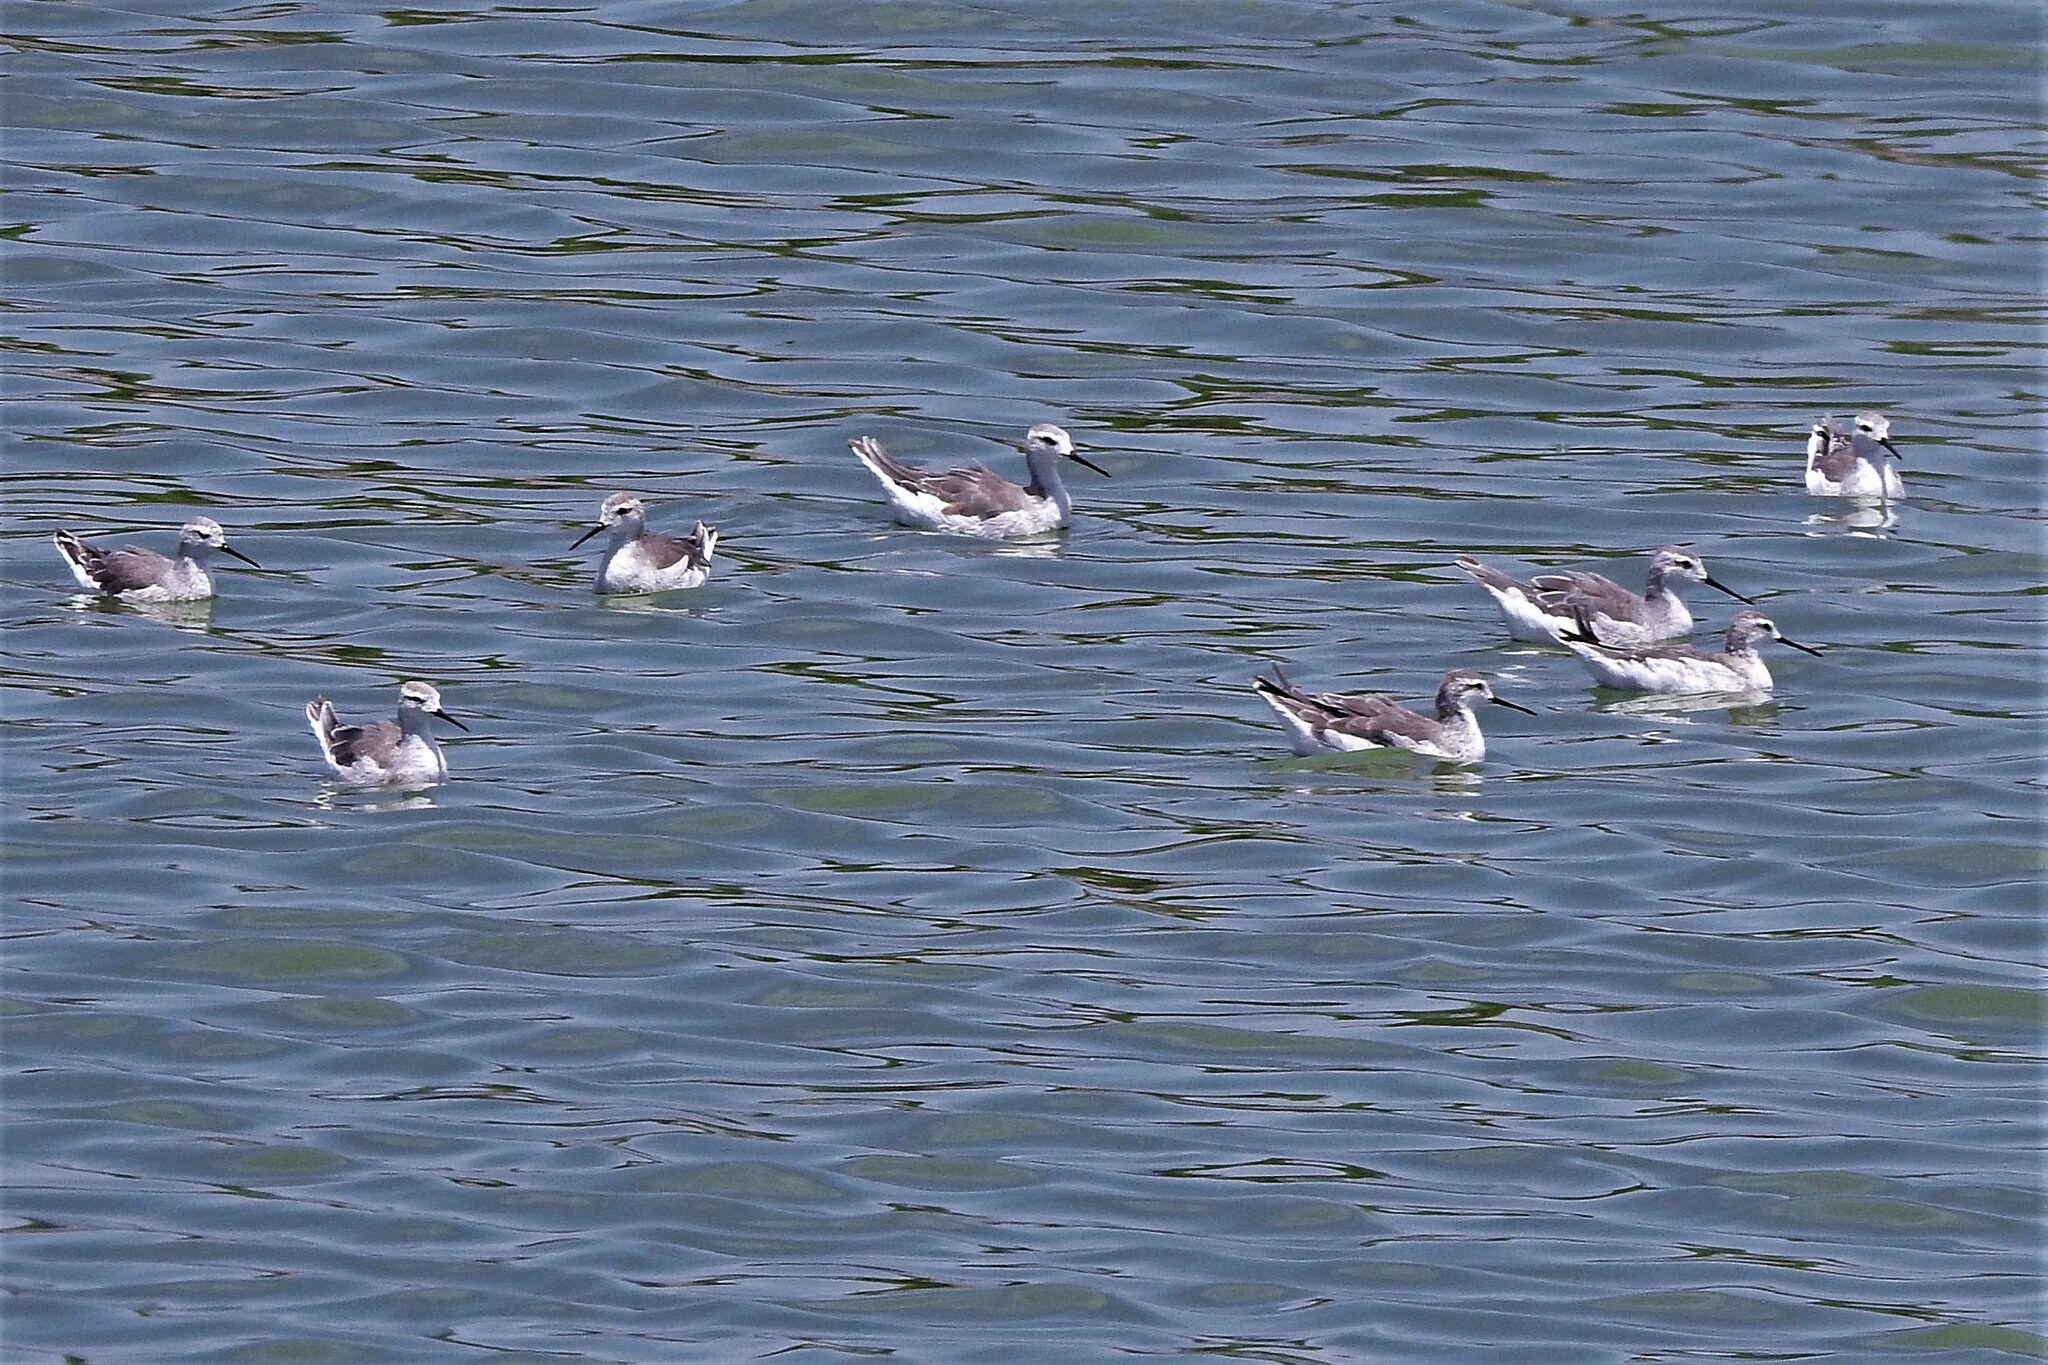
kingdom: Animalia
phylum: Chordata
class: Aves
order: Charadriiformes
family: Scolopacidae
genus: Phalaropus
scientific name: Phalaropus tricolor
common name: Wilson's phalarope
